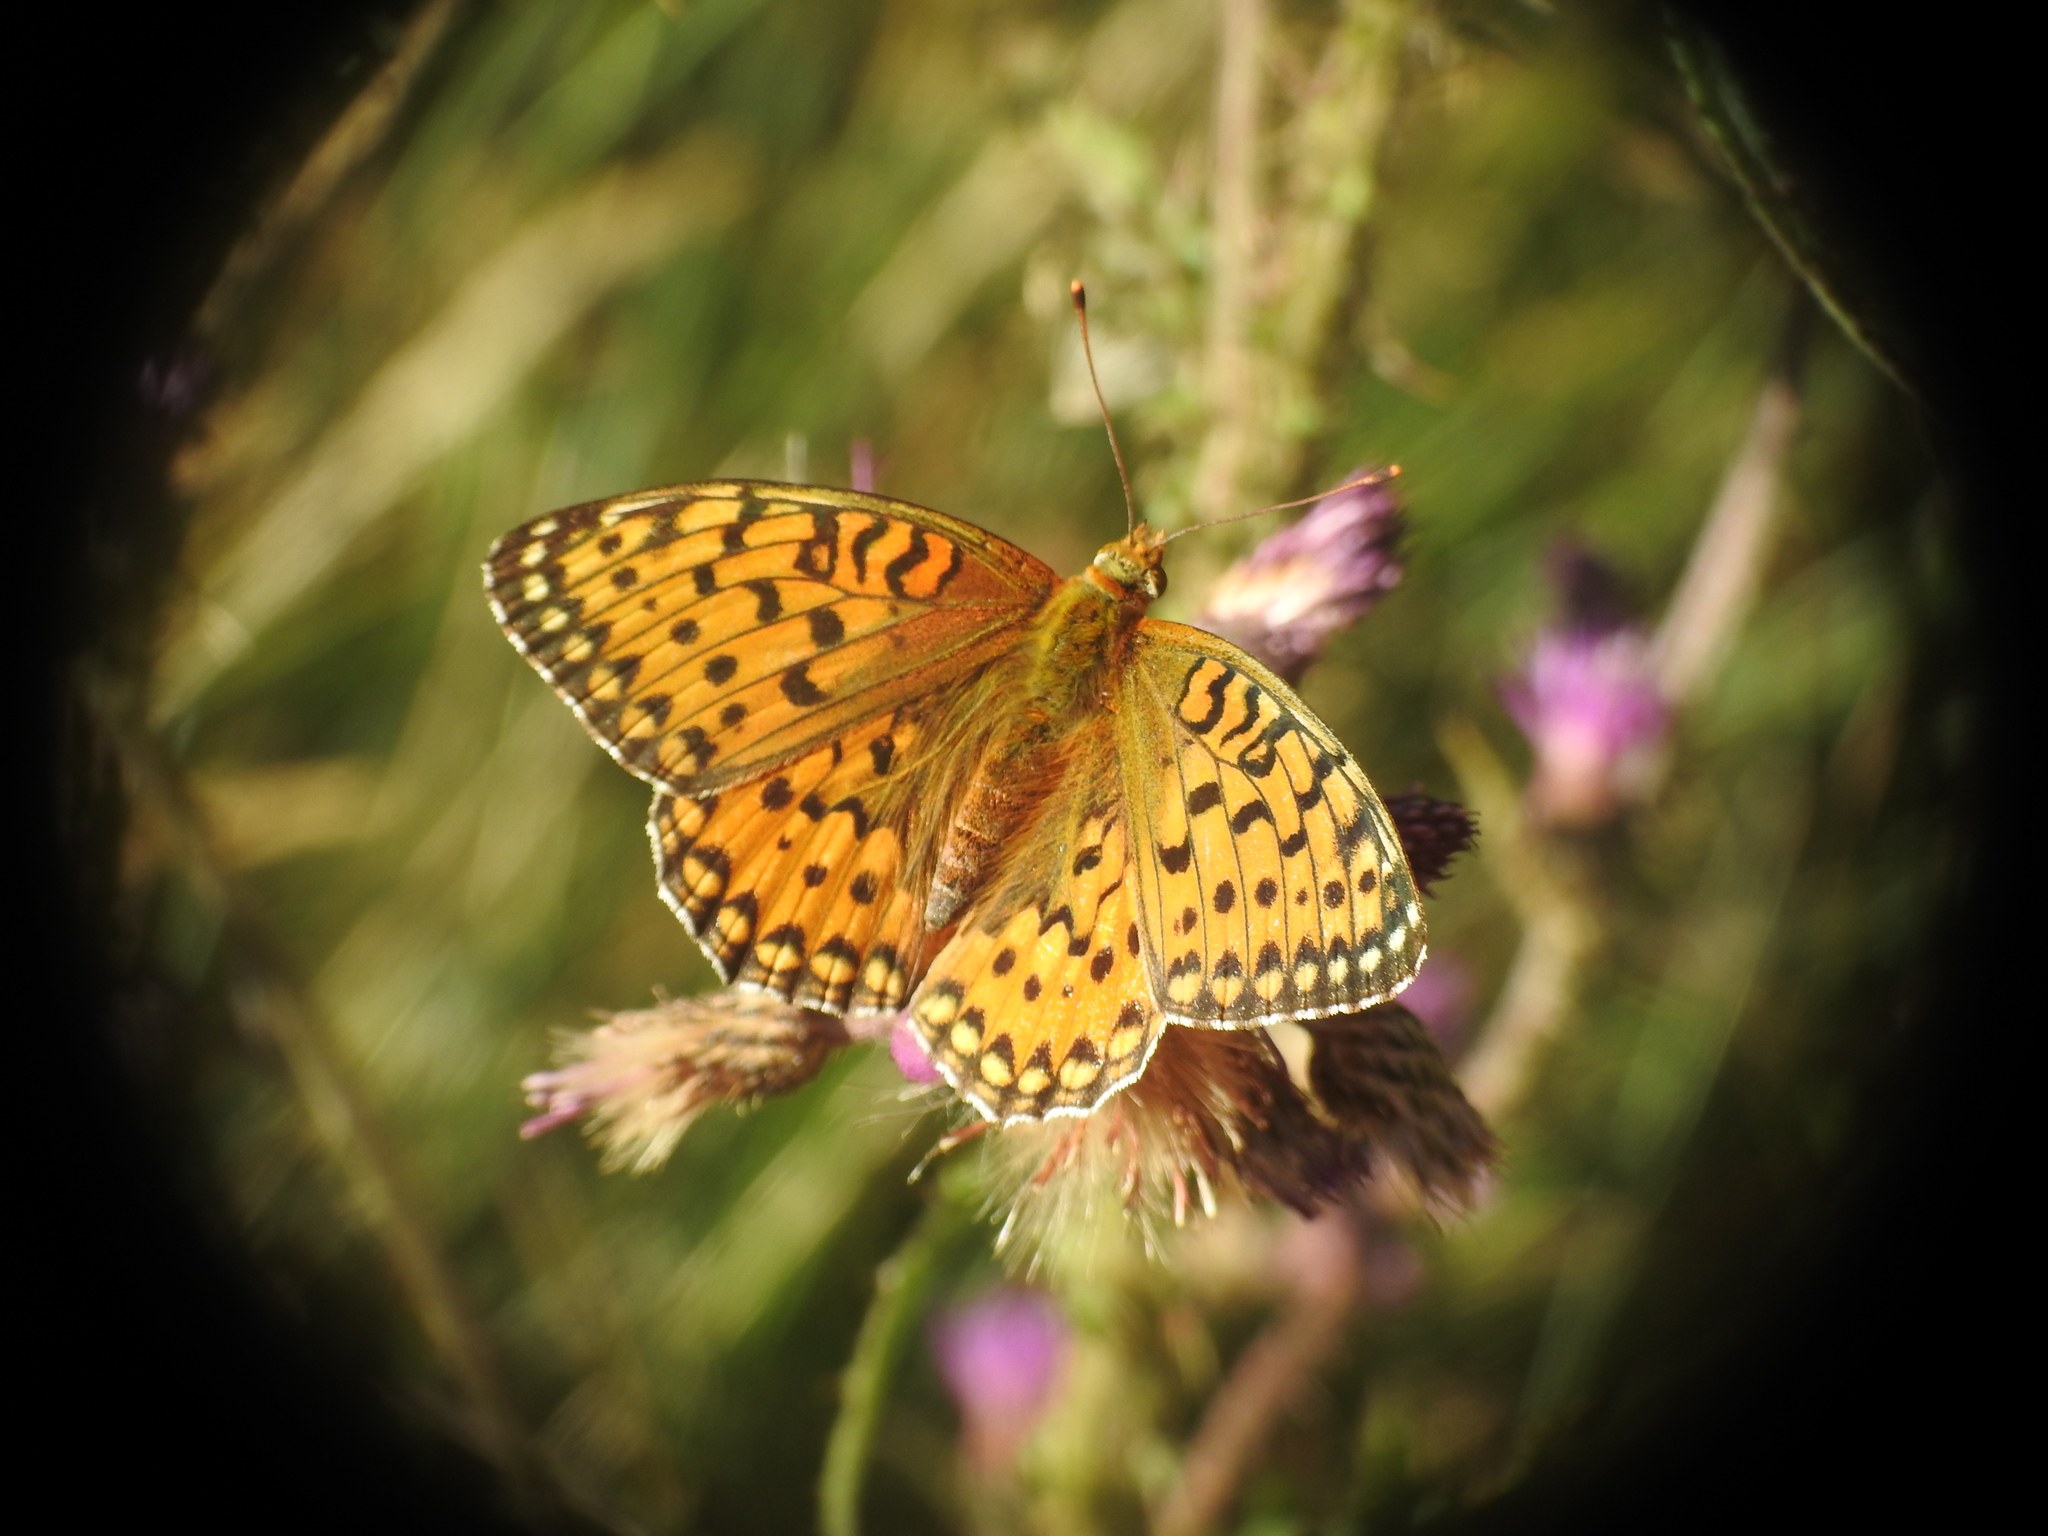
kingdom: Animalia
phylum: Arthropoda
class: Insecta
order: Lepidoptera
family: Nymphalidae
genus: Speyeria
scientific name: Speyeria aglaja
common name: Dark green fritillary
